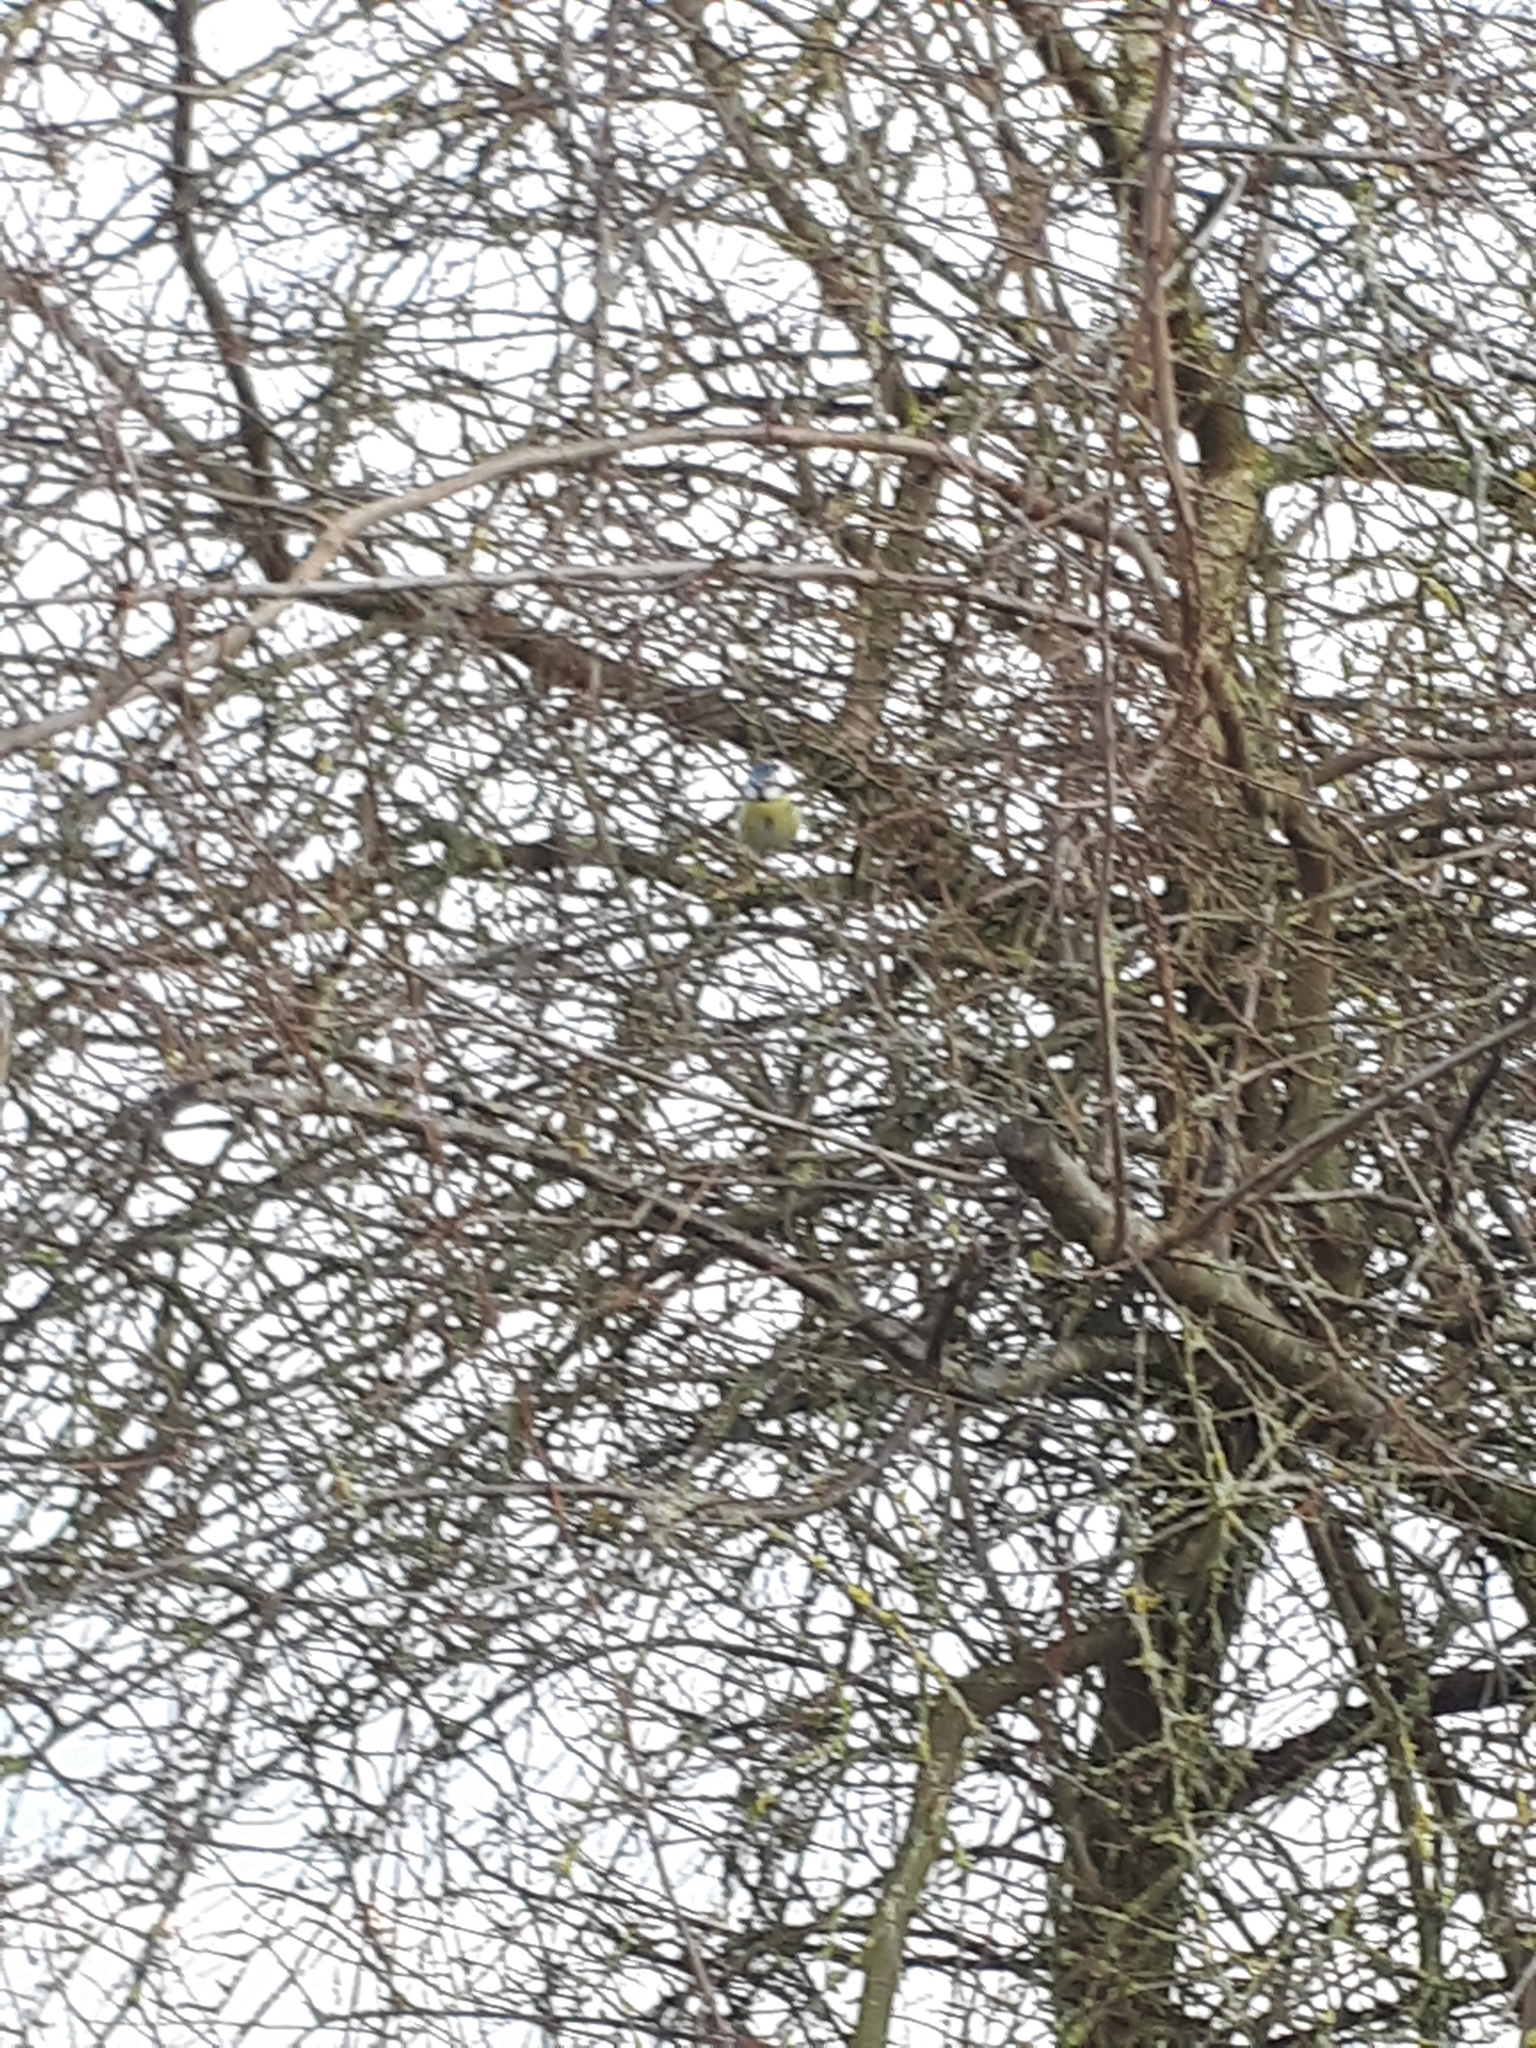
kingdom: Animalia
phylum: Chordata
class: Aves
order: Passeriformes
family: Paridae
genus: Cyanistes
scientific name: Cyanistes caeruleus
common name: Eurasian blue tit
